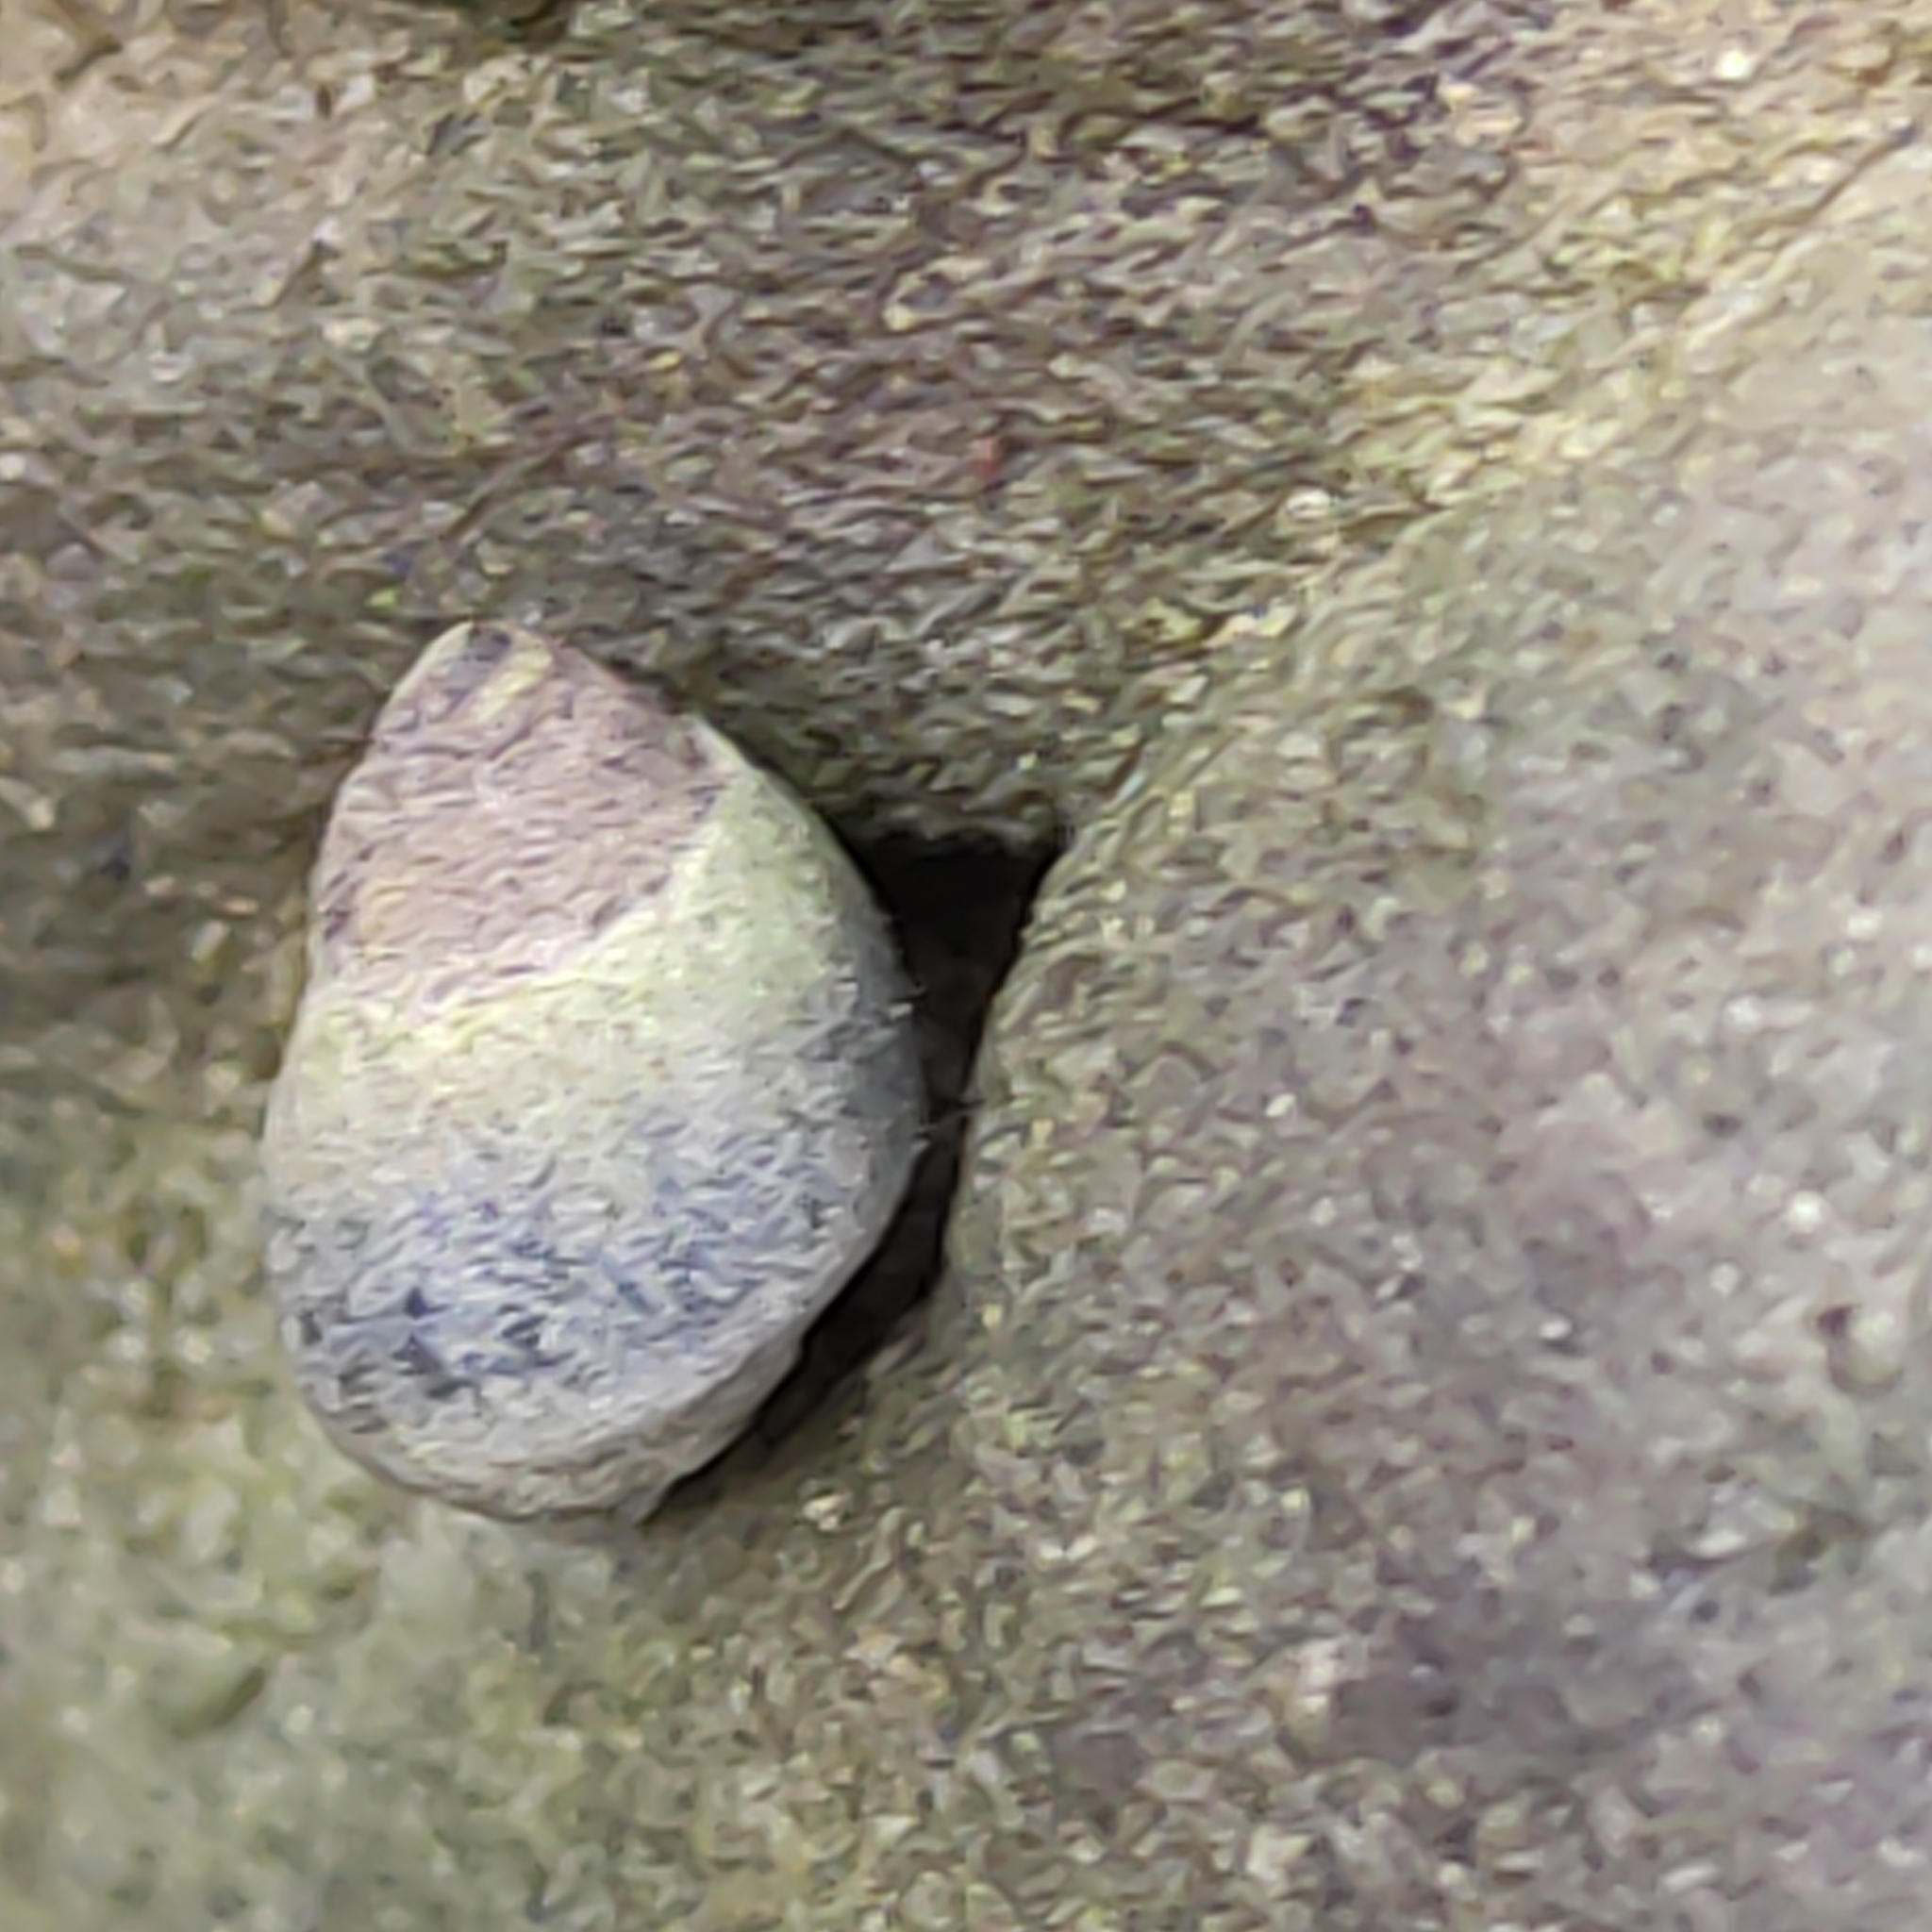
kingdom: Animalia
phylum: Mollusca
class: Gastropoda
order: Littorinimorpha
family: Littorinidae
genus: Austrolittorina
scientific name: Austrolittorina antipodum
